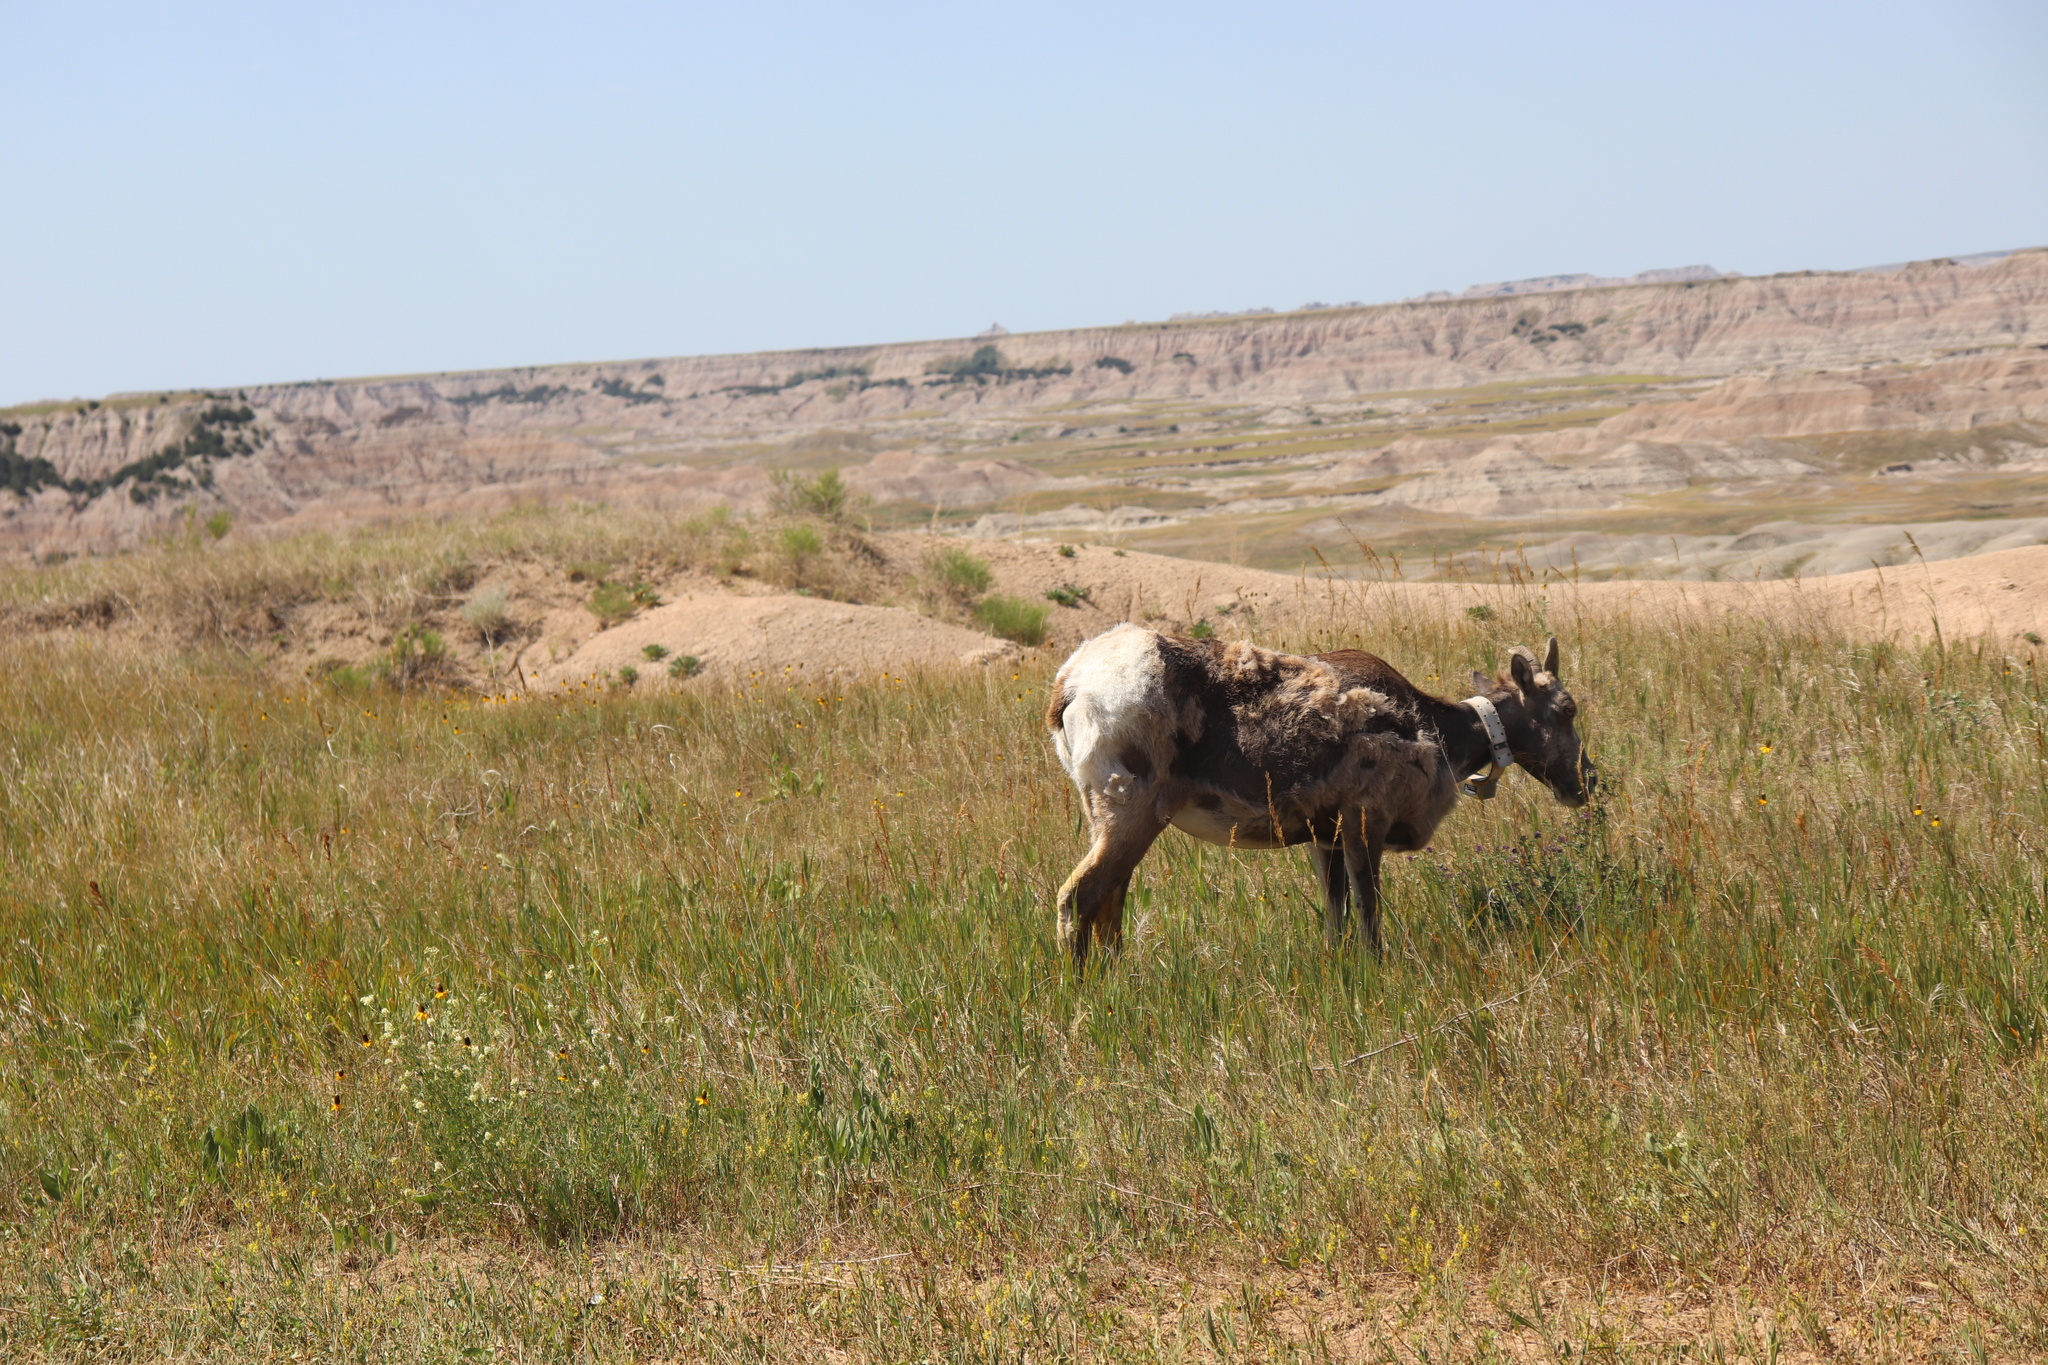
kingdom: Animalia
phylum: Chordata
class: Mammalia
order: Artiodactyla
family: Bovidae
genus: Ovis
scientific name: Ovis canadensis
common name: Bighorn sheep
